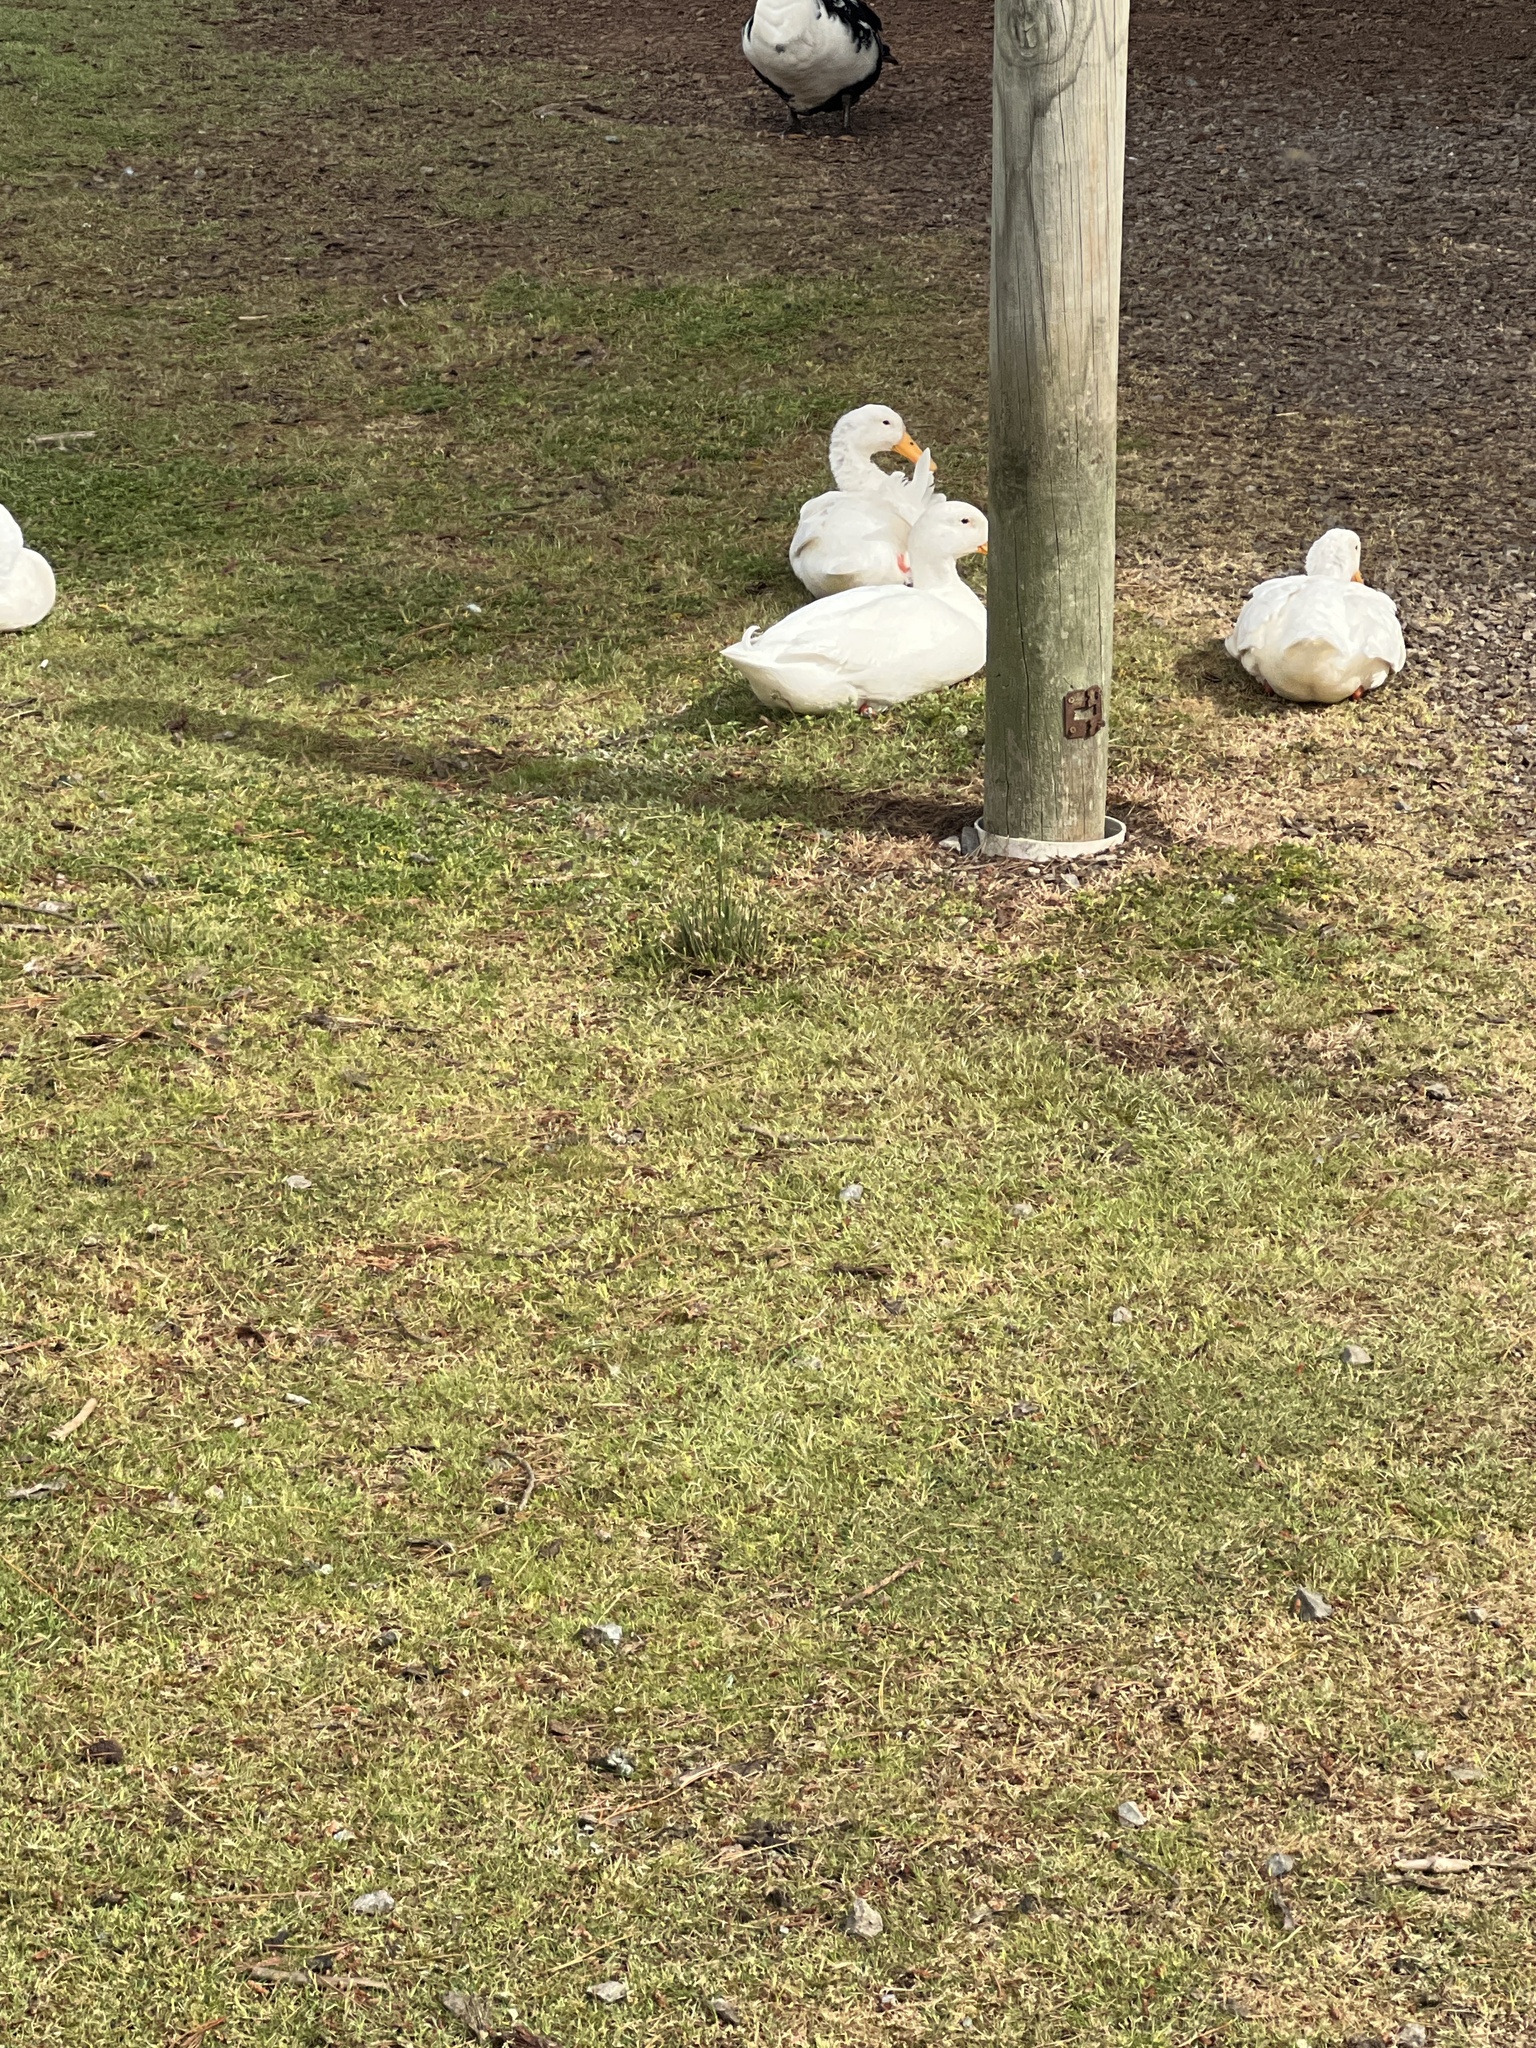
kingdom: Animalia
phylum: Chordata
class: Aves
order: Anseriformes
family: Anatidae
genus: Anas
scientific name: Anas platyrhynchos
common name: Mallard
